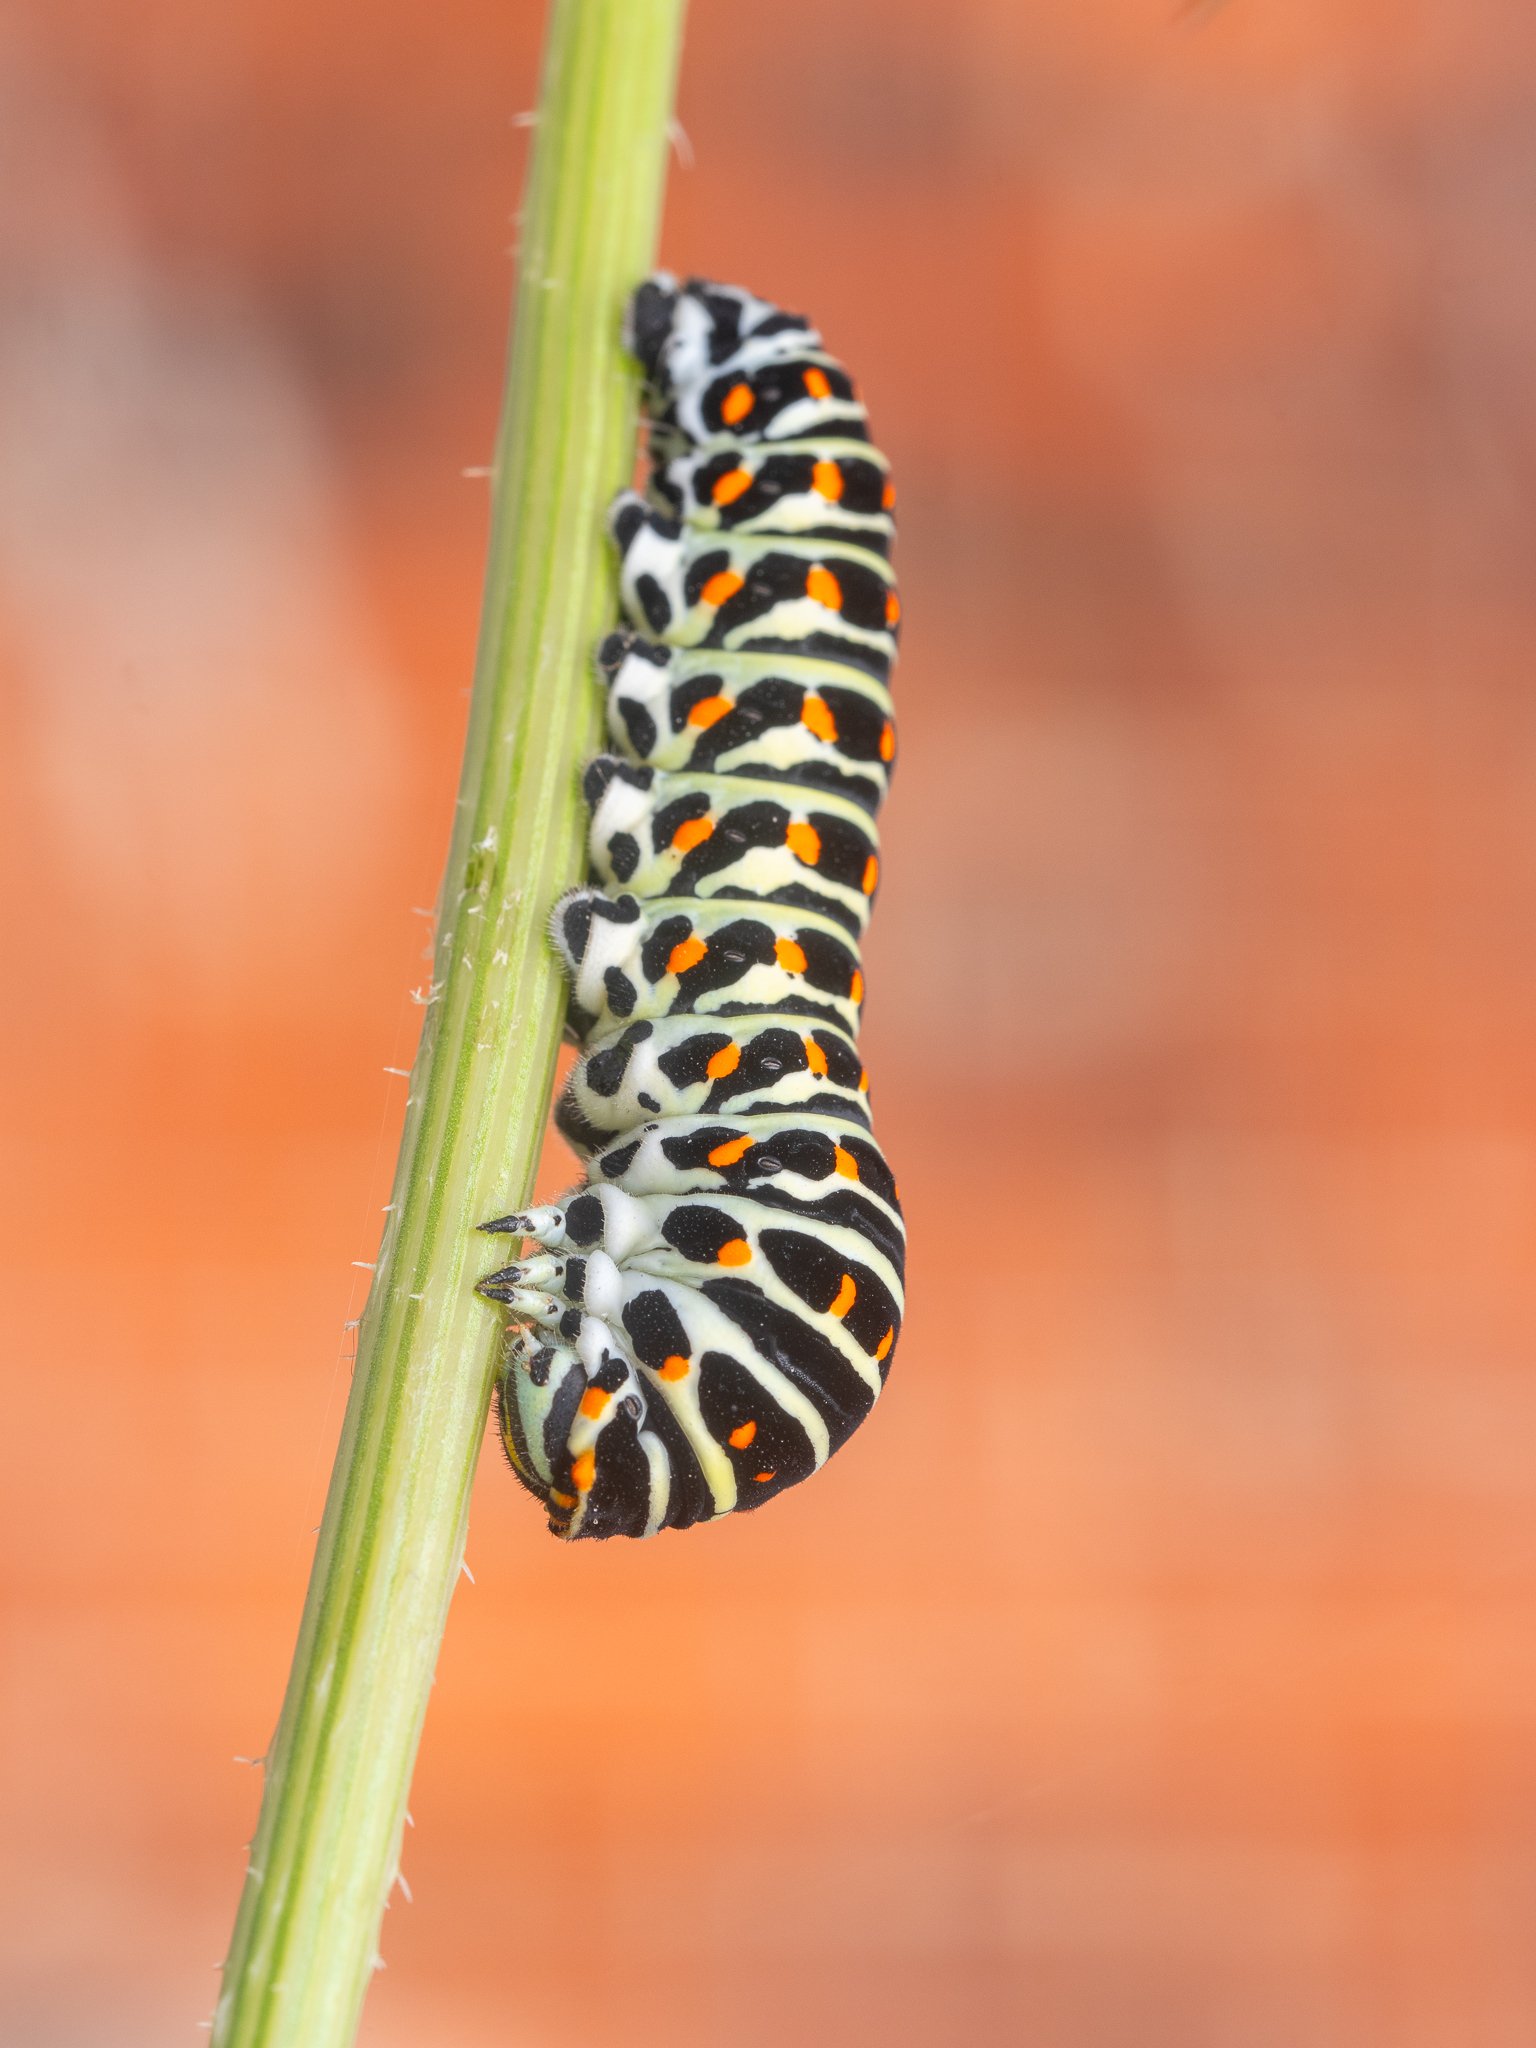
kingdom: Animalia
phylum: Arthropoda
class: Insecta
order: Lepidoptera
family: Papilionidae
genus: Papilio
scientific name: Papilio machaon
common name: Swallowtail
